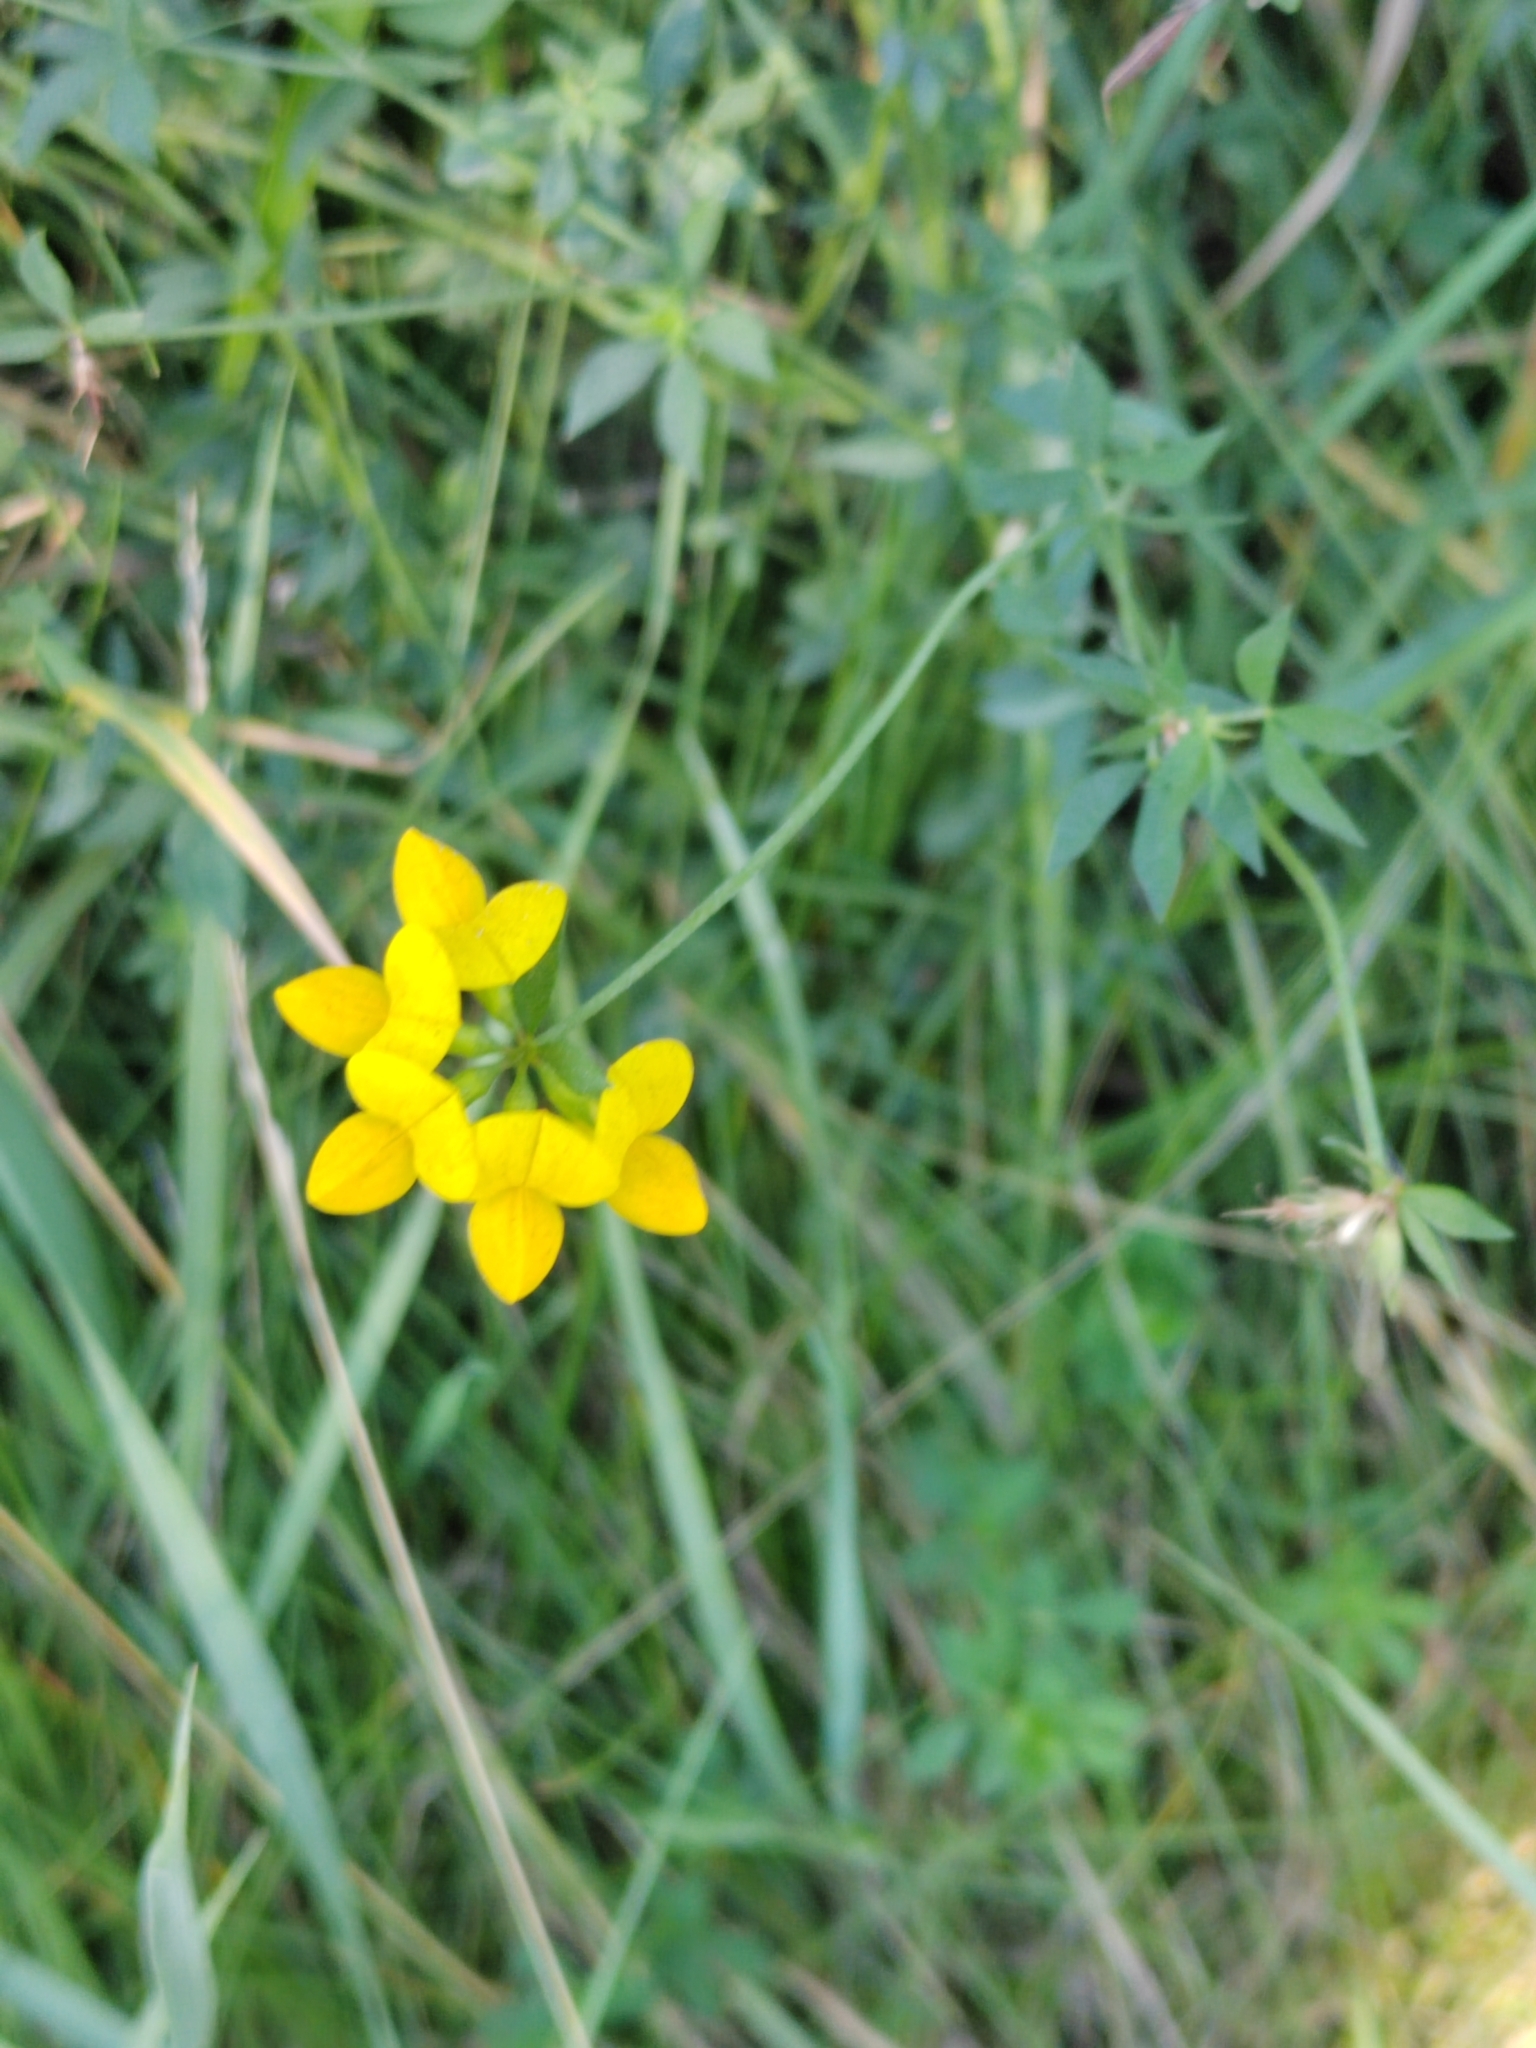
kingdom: Plantae
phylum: Tracheophyta
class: Magnoliopsida
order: Fabales
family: Fabaceae
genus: Lotus
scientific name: Lotus corniculatus
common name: Common bird's-foot-trefoil
